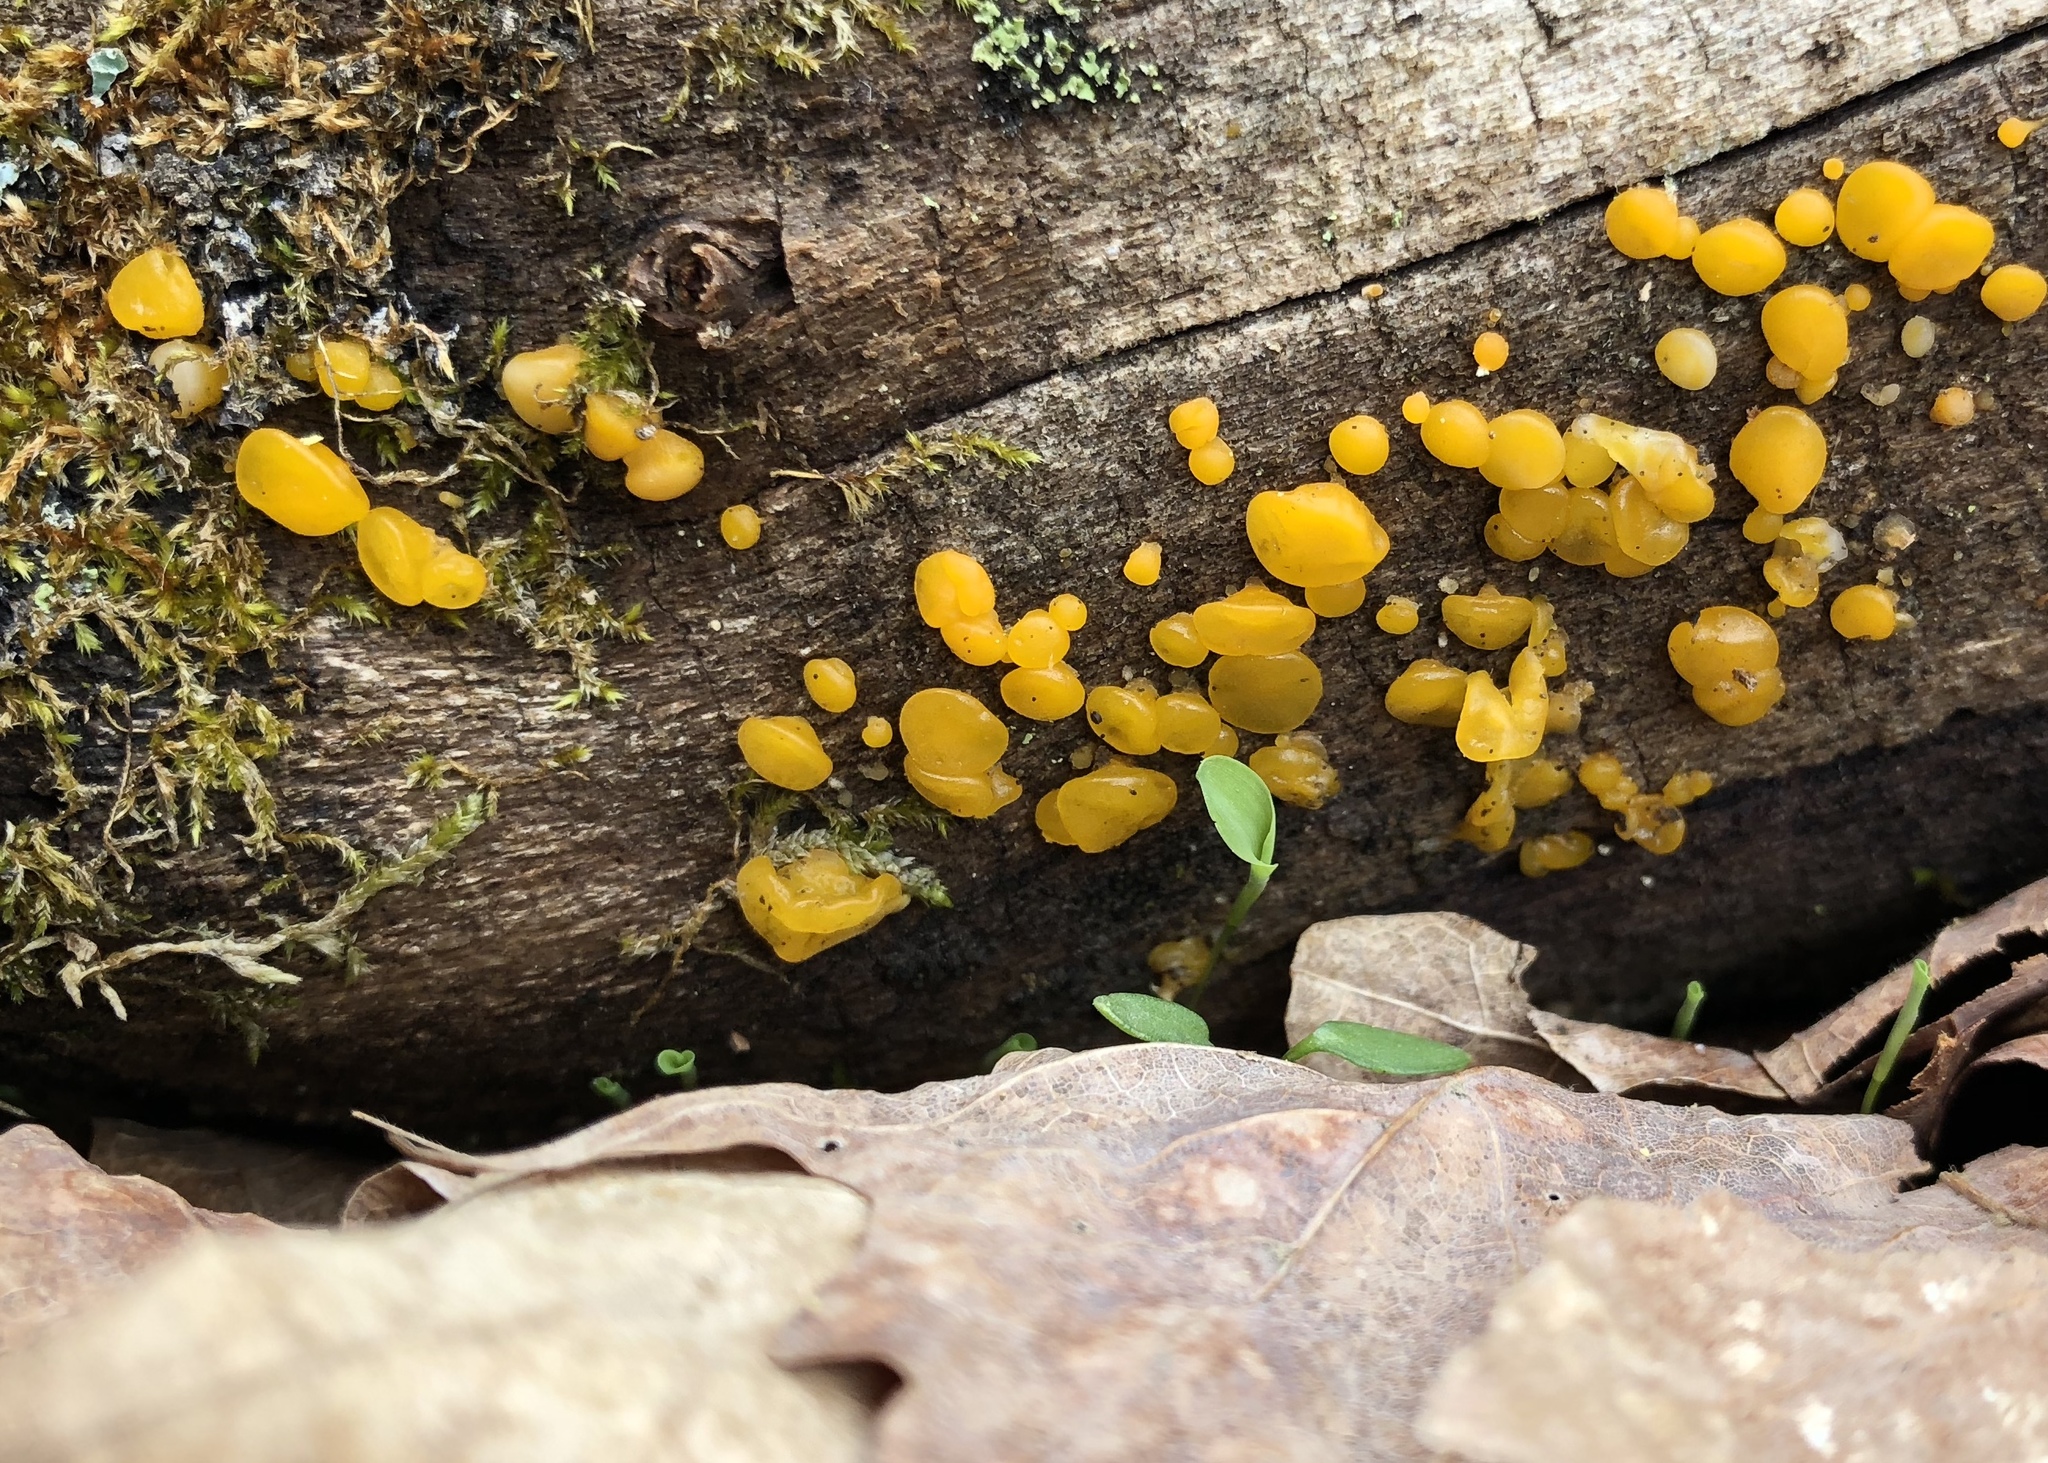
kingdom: Fungi
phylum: Basidiomycota
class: Dacrymycetes
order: Dacrymycetales
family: Dacrymycetaceae
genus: Dacrymyces
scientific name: Dacrymyces capitatus
